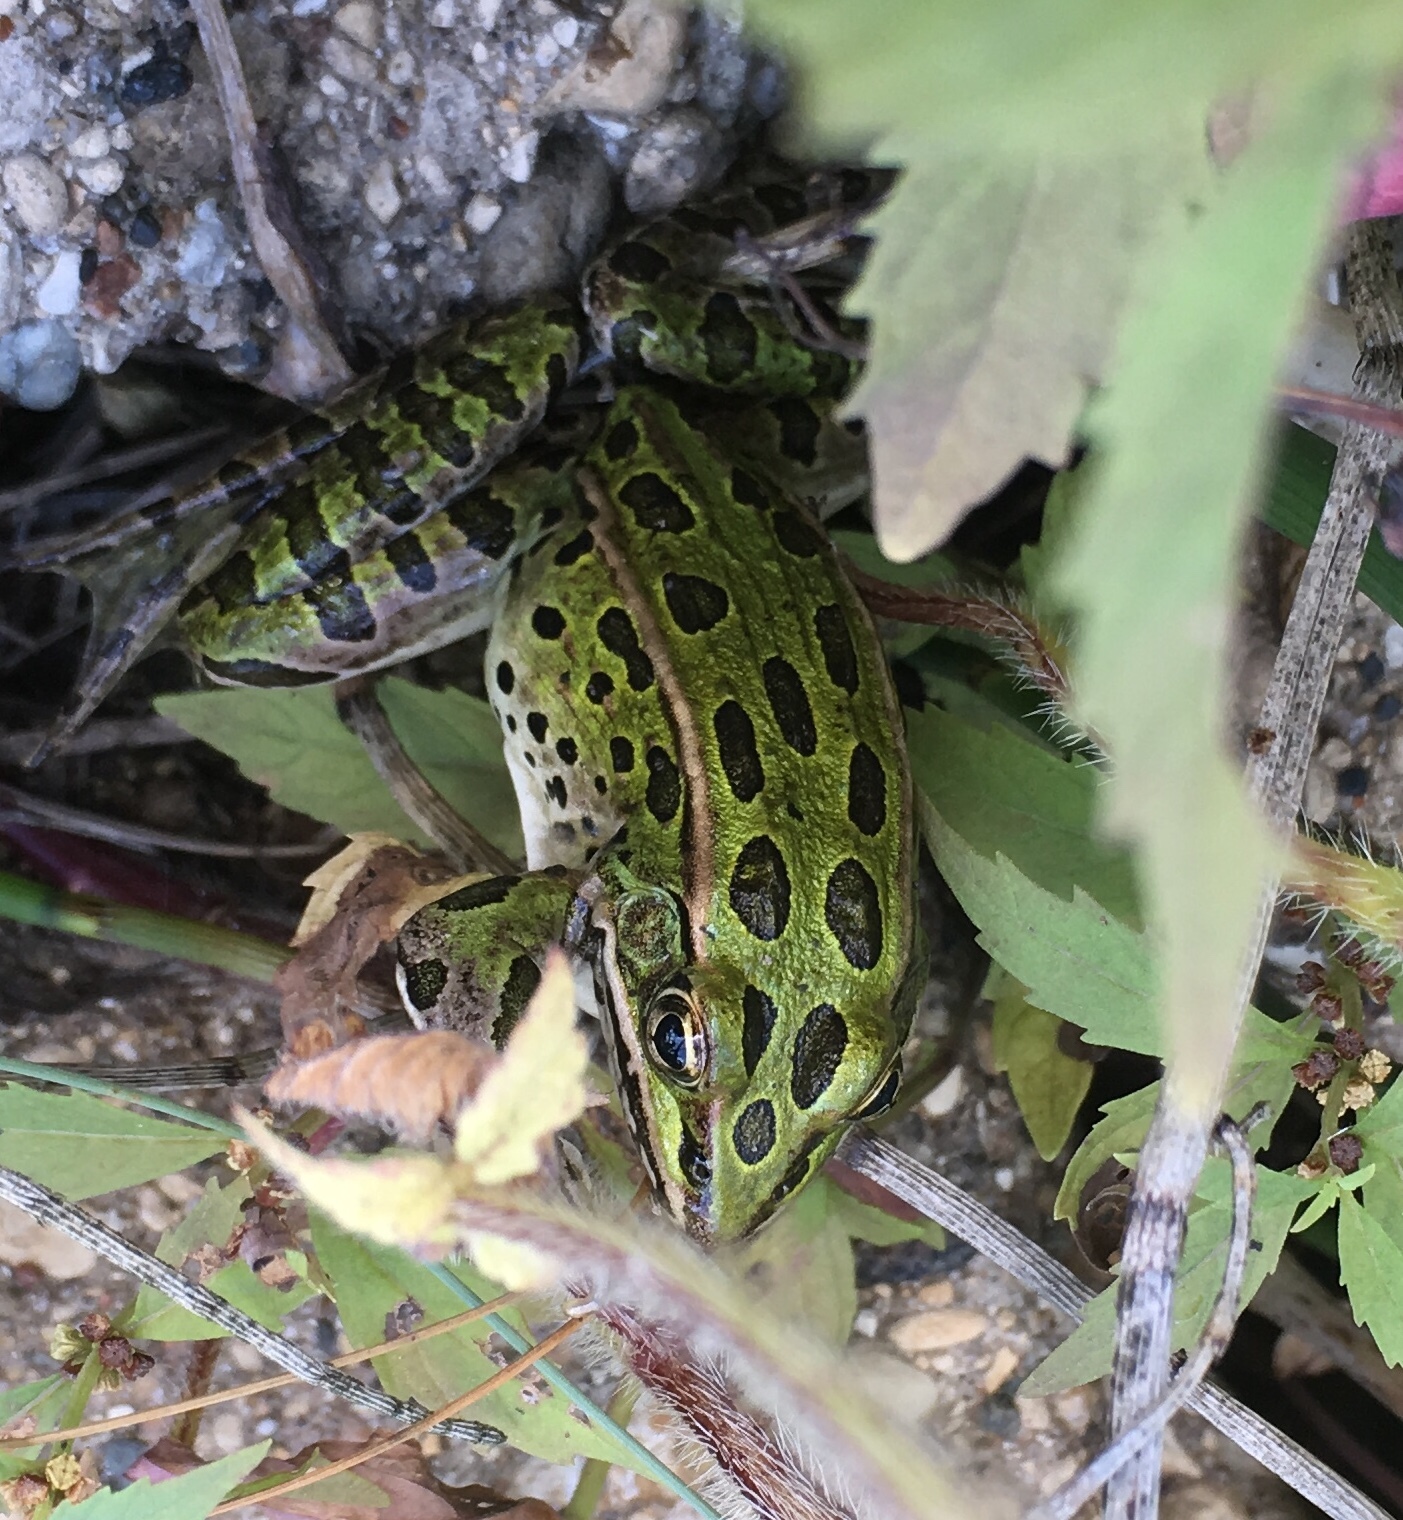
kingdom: Animalia
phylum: Chordata
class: Amphibia
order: Anura
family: Ranidae
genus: Lithobates
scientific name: Lithobates pipiens
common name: Northern leopard frog
